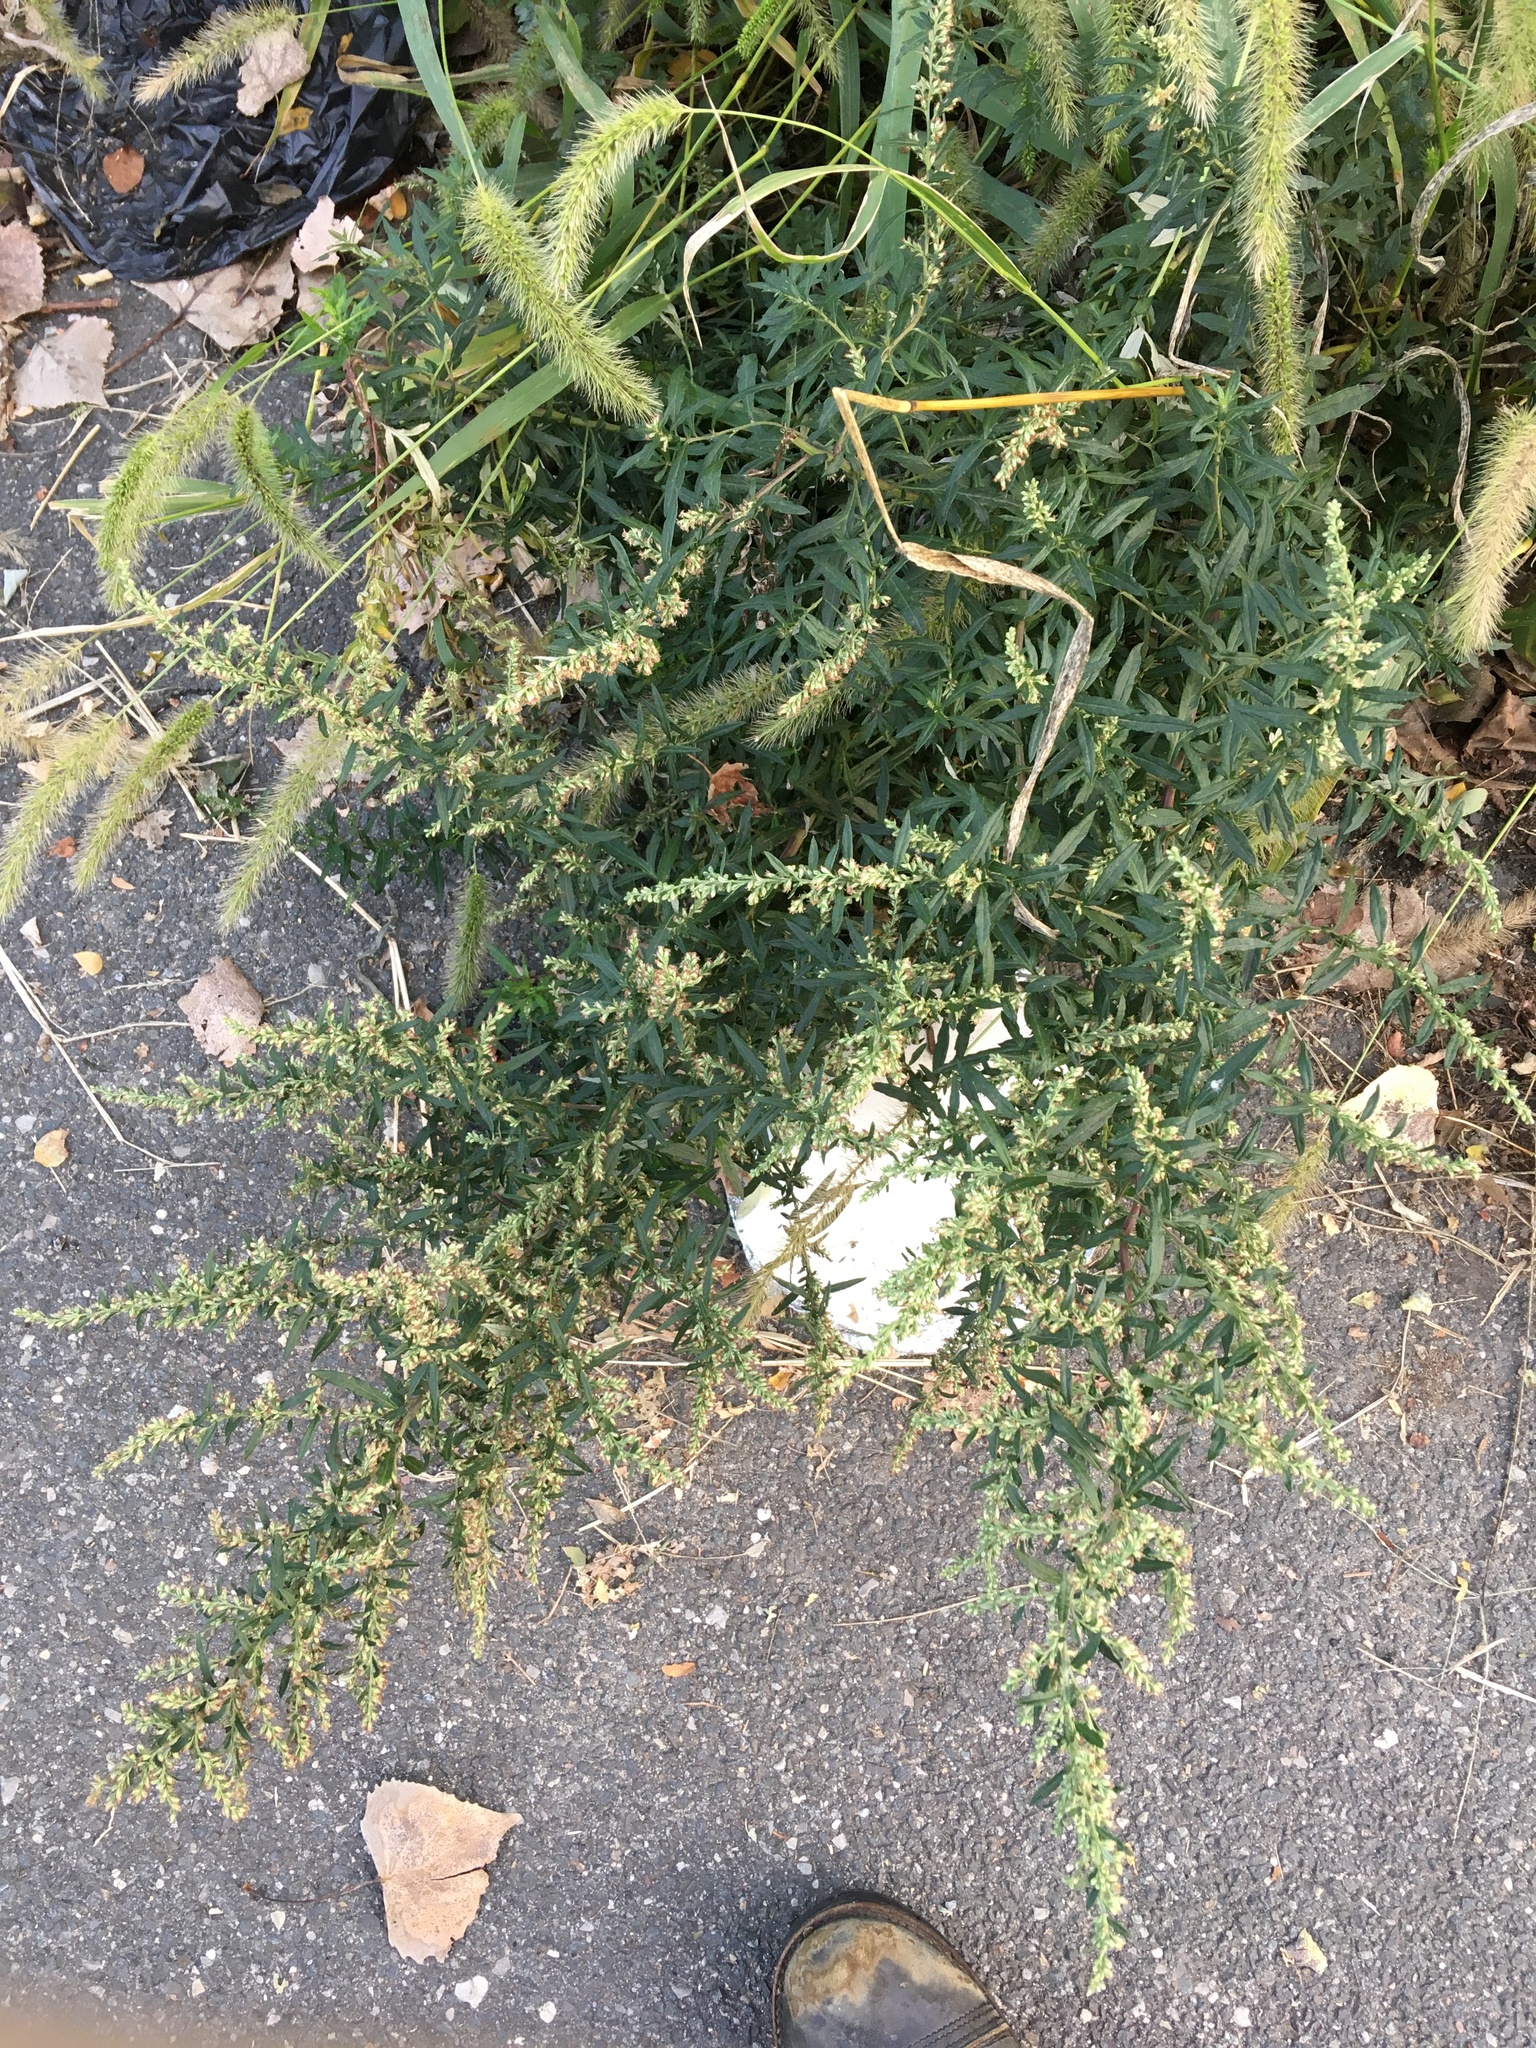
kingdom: Plantae
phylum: Tracheophyta
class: Magnoliopsida
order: Asterales
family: Asteraceae
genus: Artemisia
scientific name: Artemisia vulgaris
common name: Mugwort
